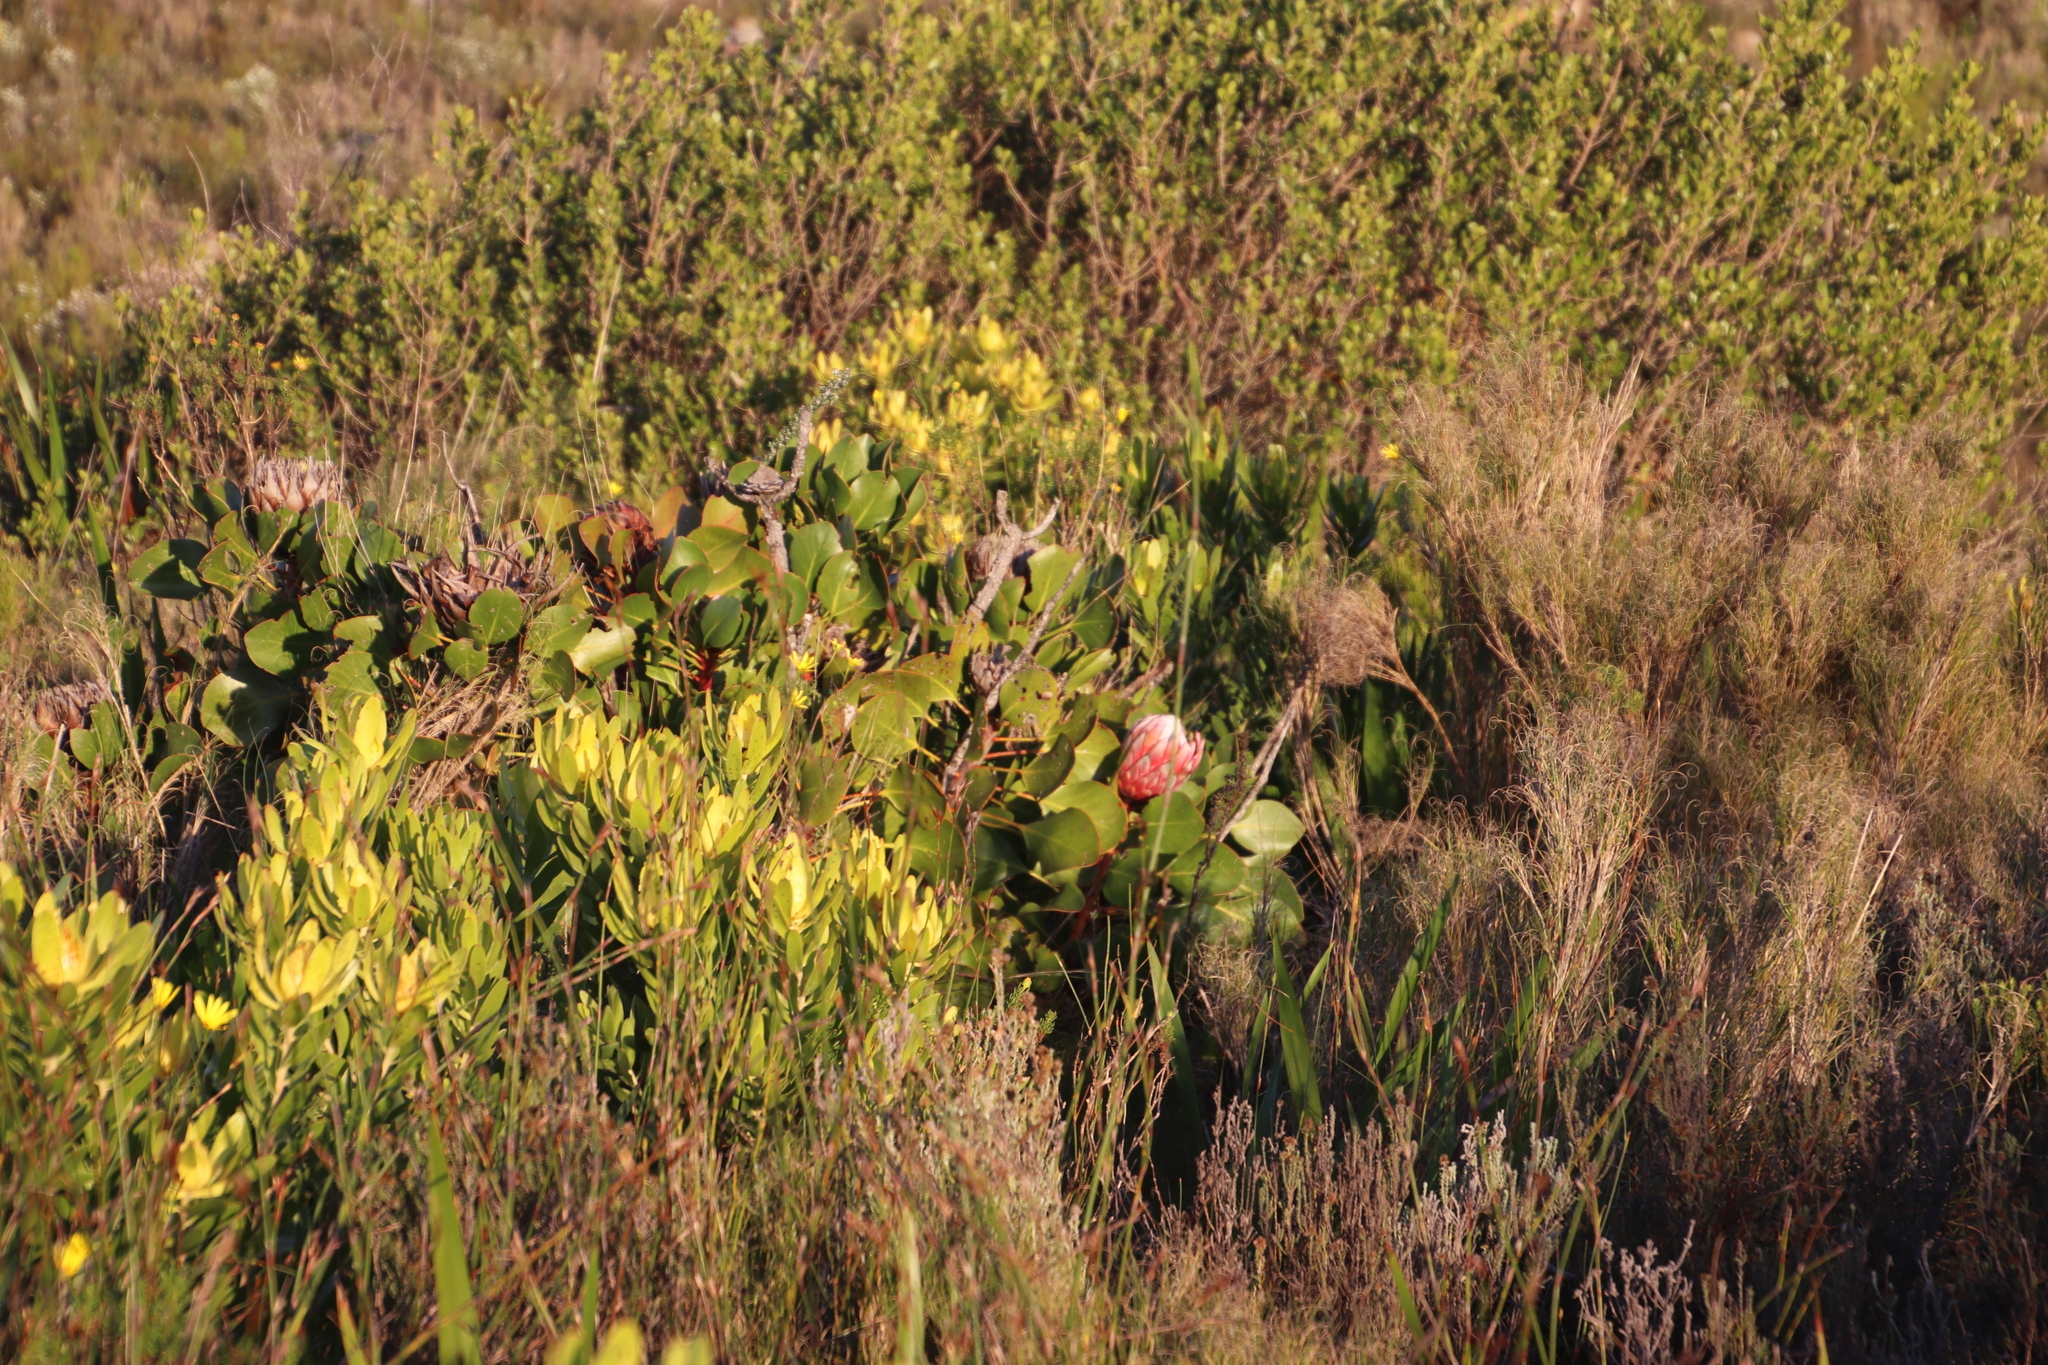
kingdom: Plantae
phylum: Tracheophyta
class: Magnoliopsida
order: Proteales
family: Proteaceae
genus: Protea
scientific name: Protea cynaroides
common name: King protea
